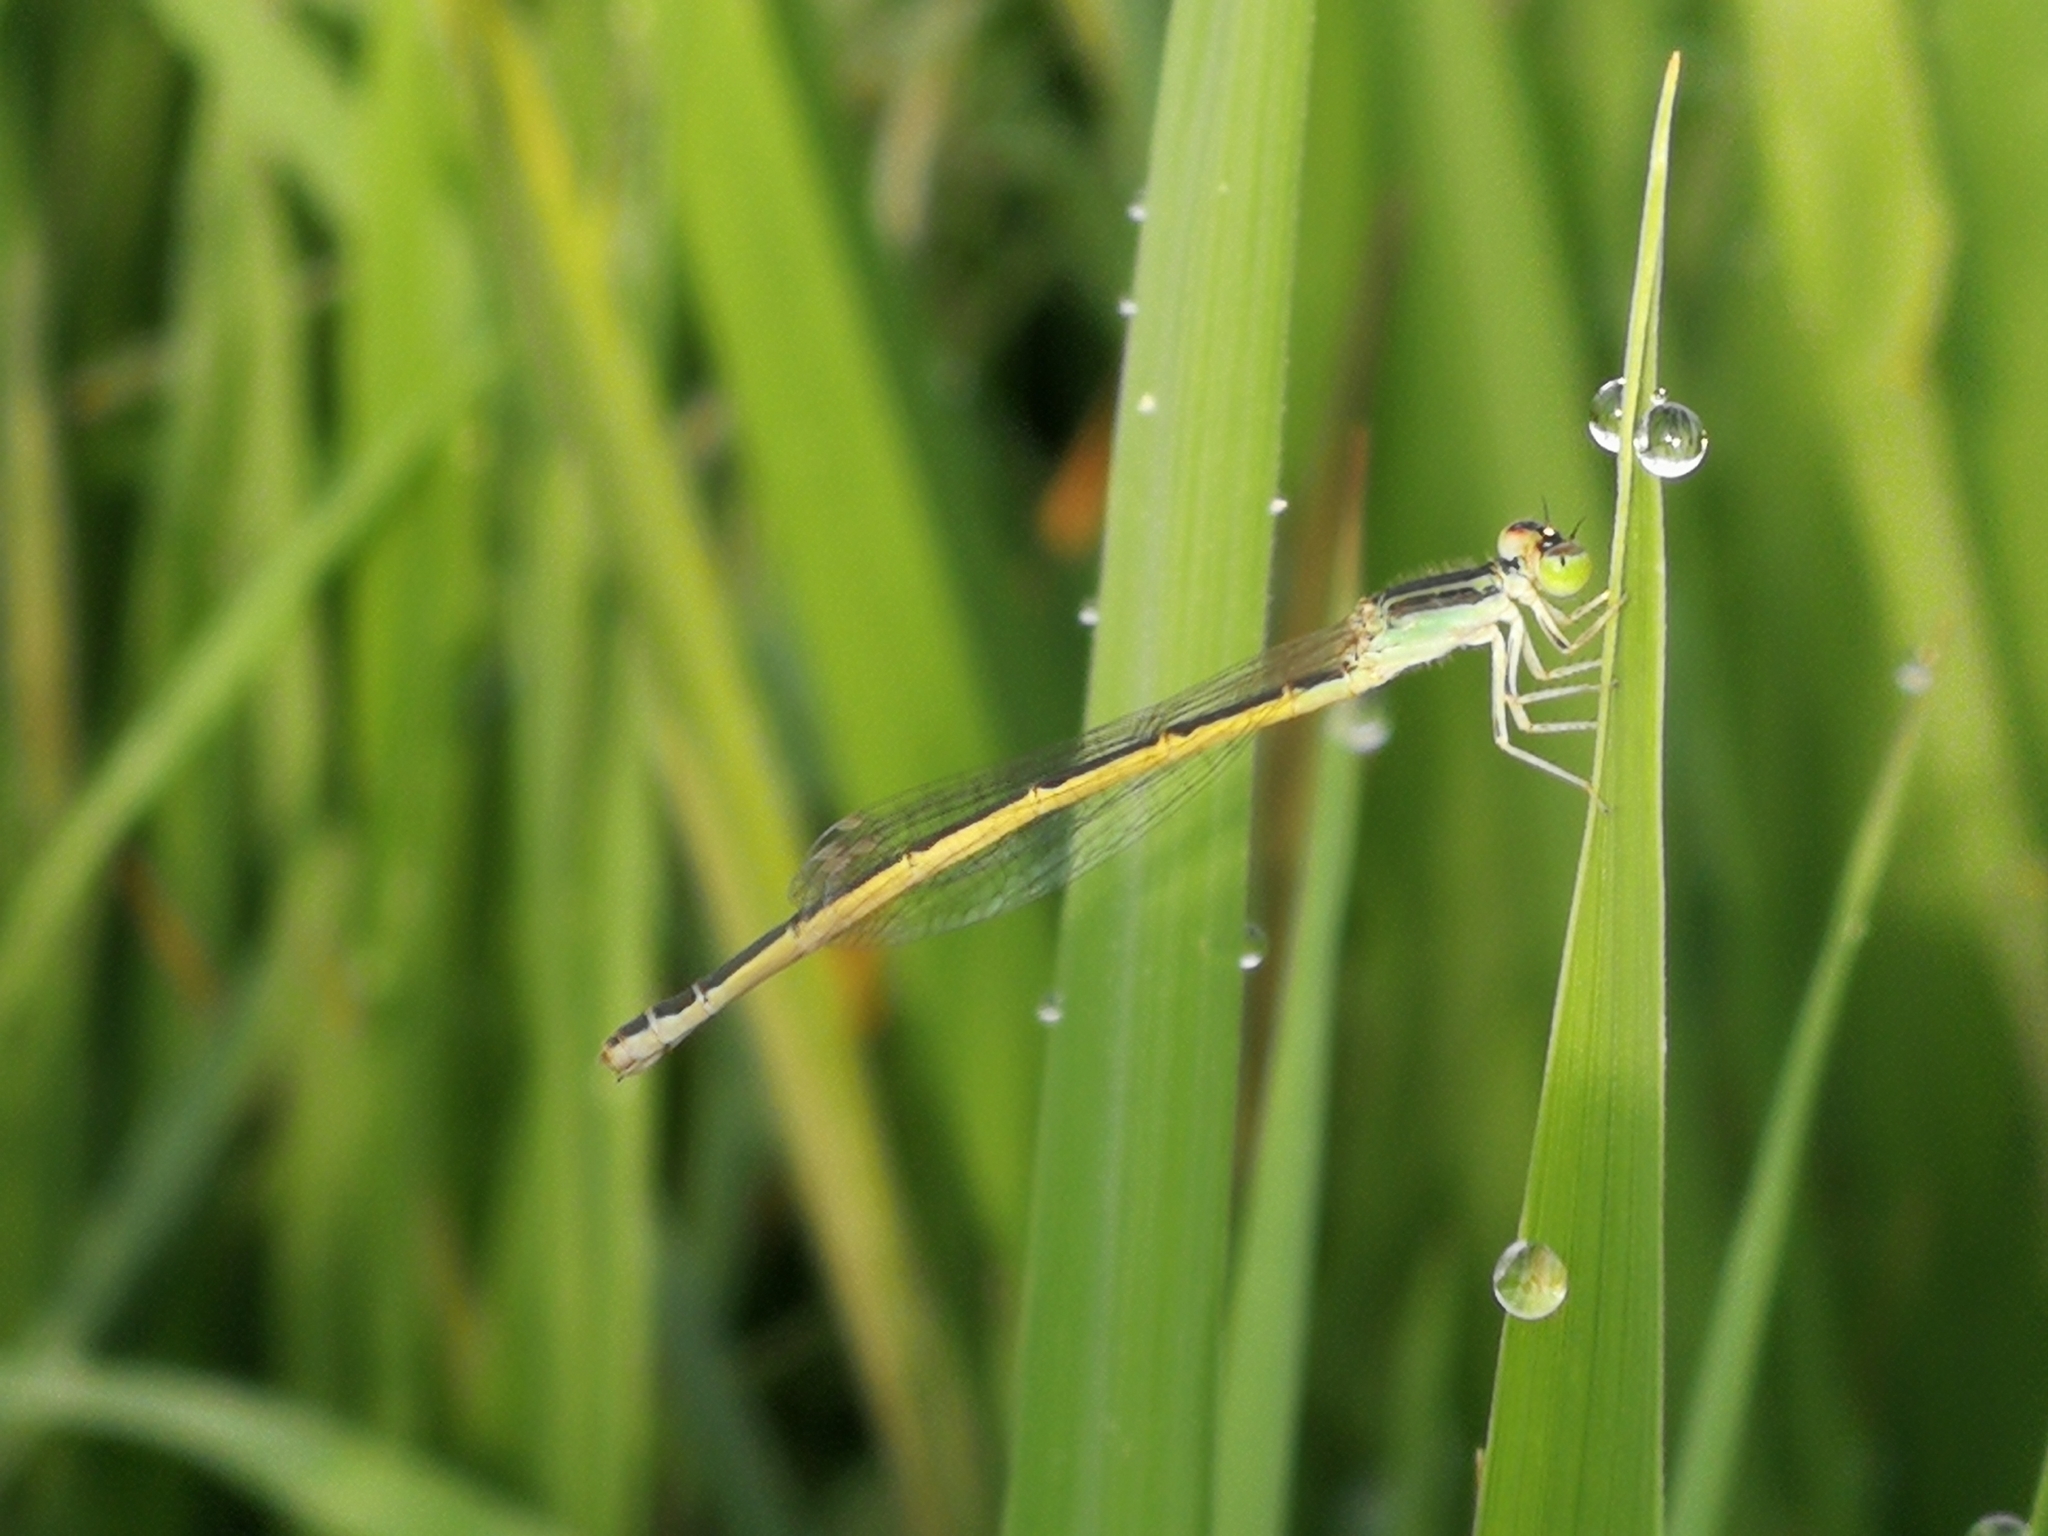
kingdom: Animalia
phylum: Arthropoda
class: Insecta
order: Odonata
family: Coenagrionidae
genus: Ischnura
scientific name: Ischnura rubilio
